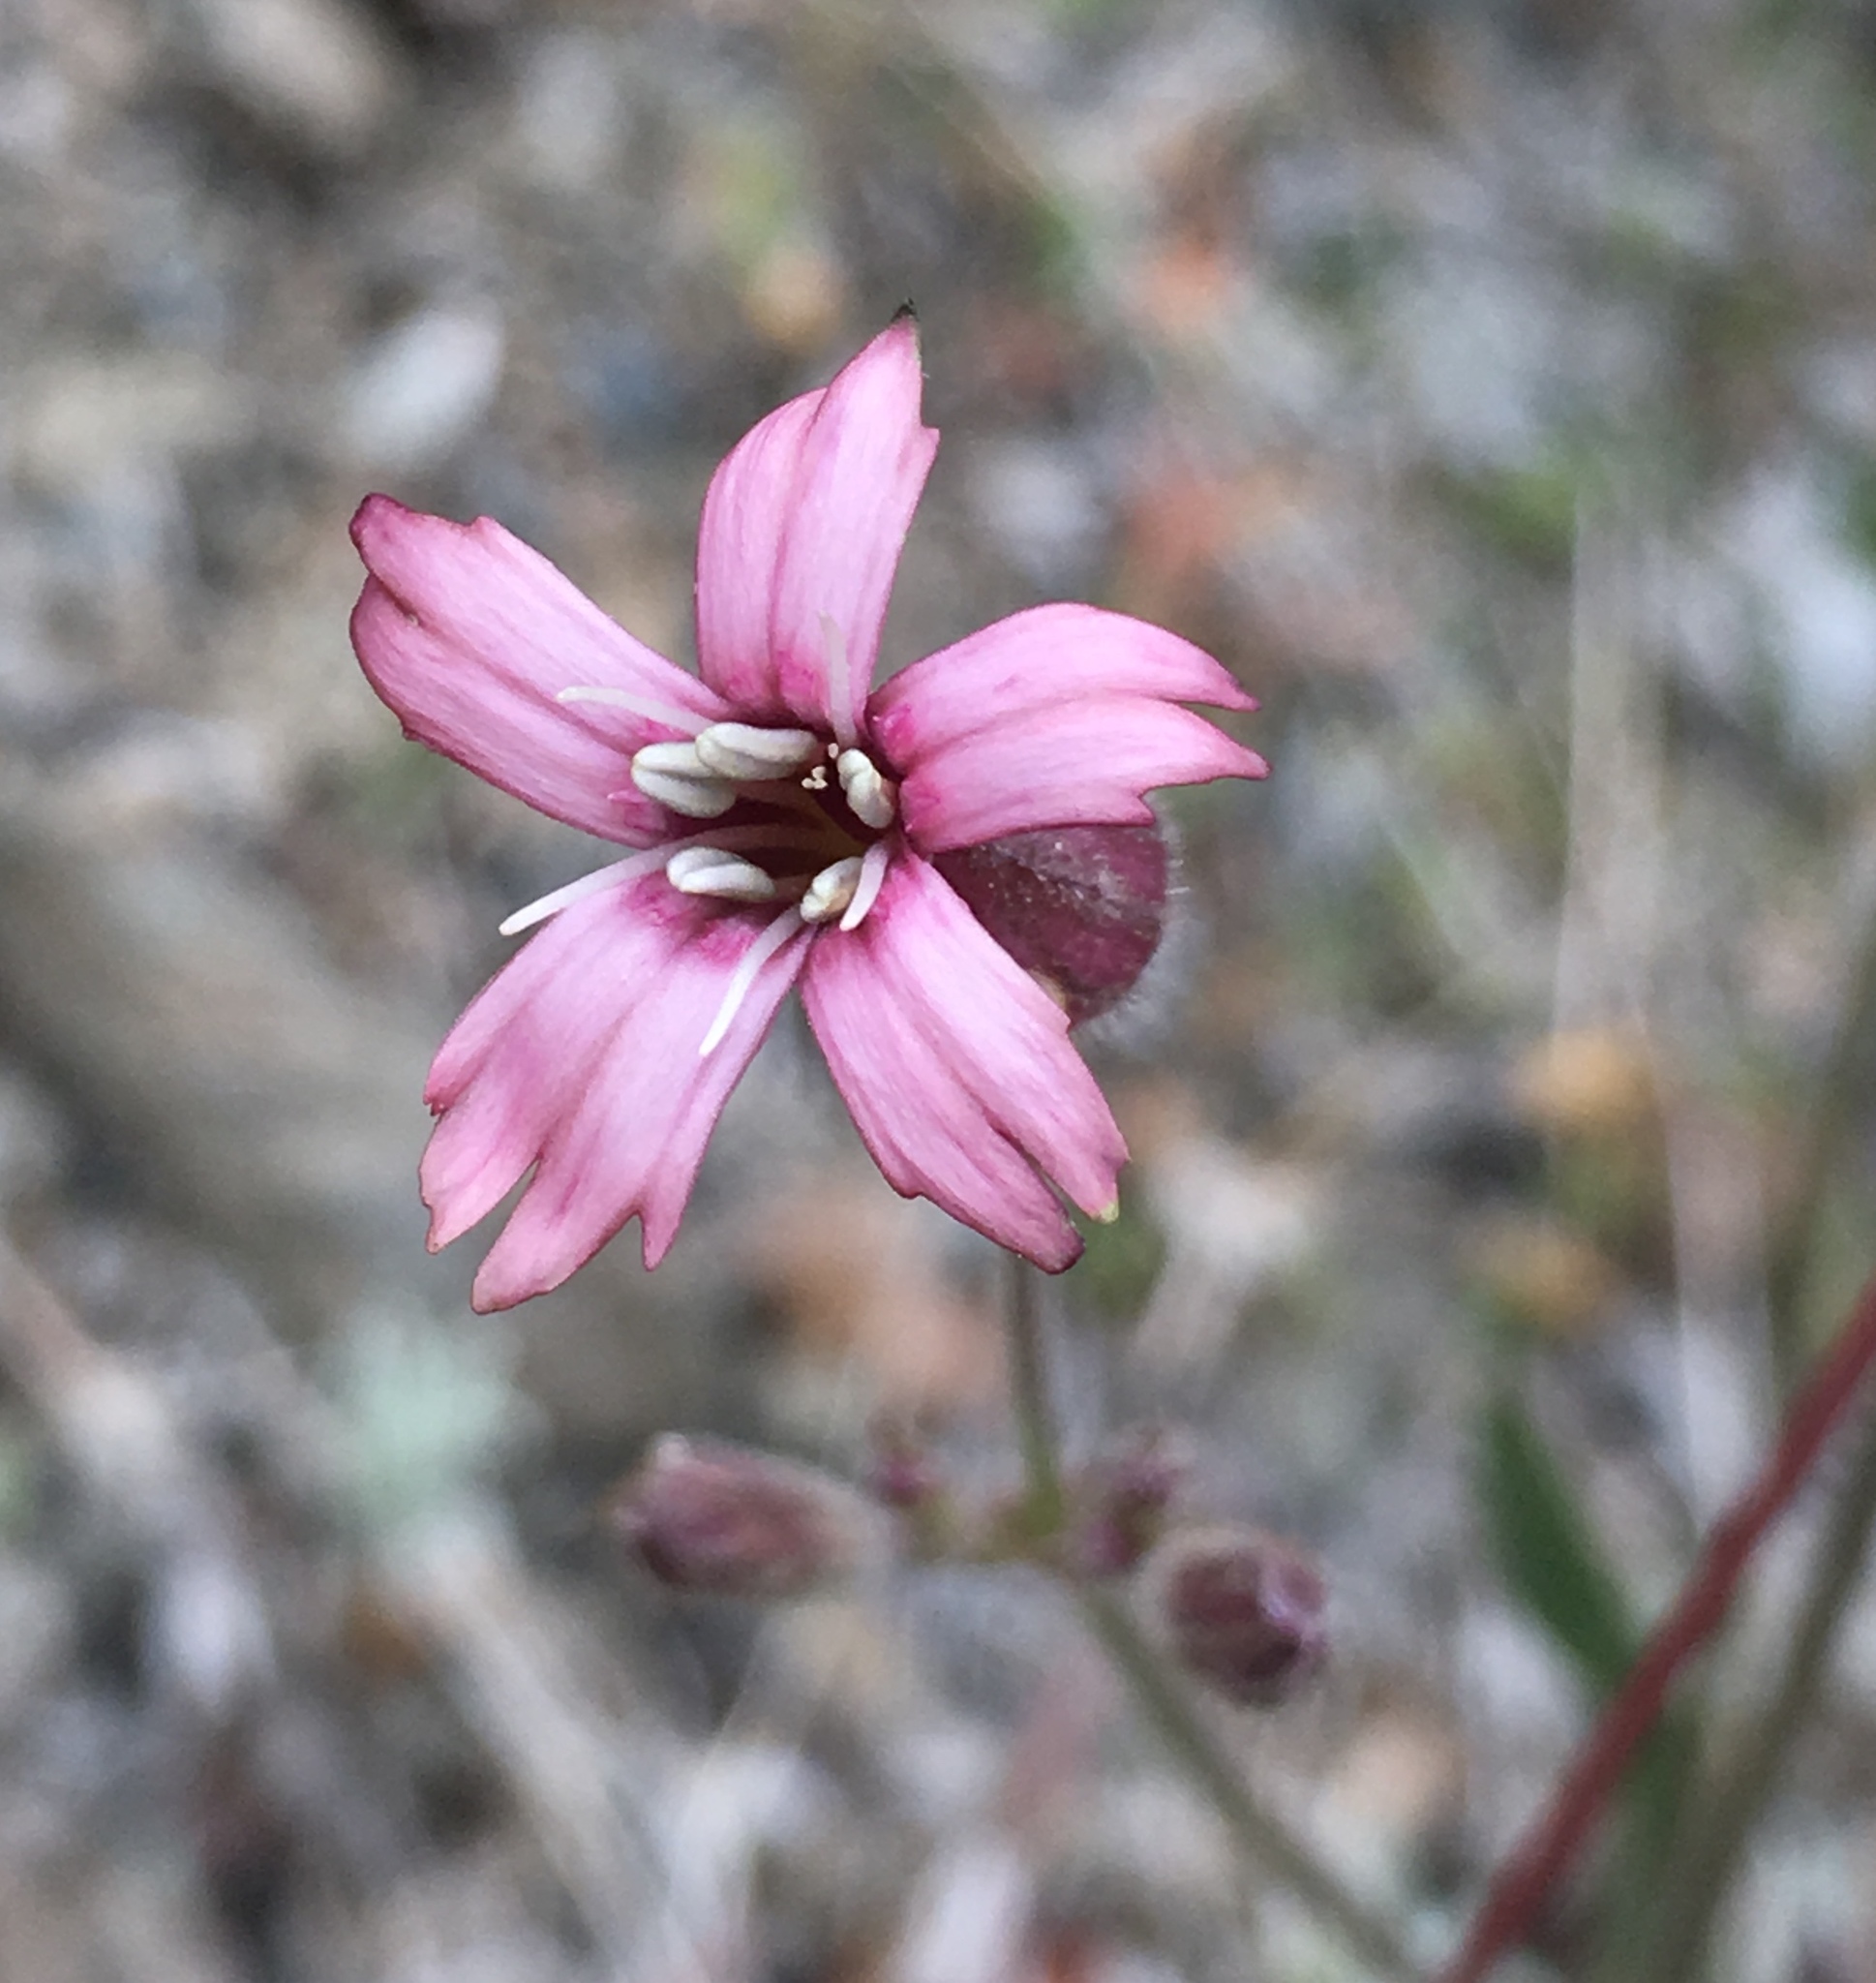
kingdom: Plantae
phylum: Tracheophyta
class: Magnoliopsida
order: Caryophyllales
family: Caryophyllaceae
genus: Silene
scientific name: Silene verecunda
